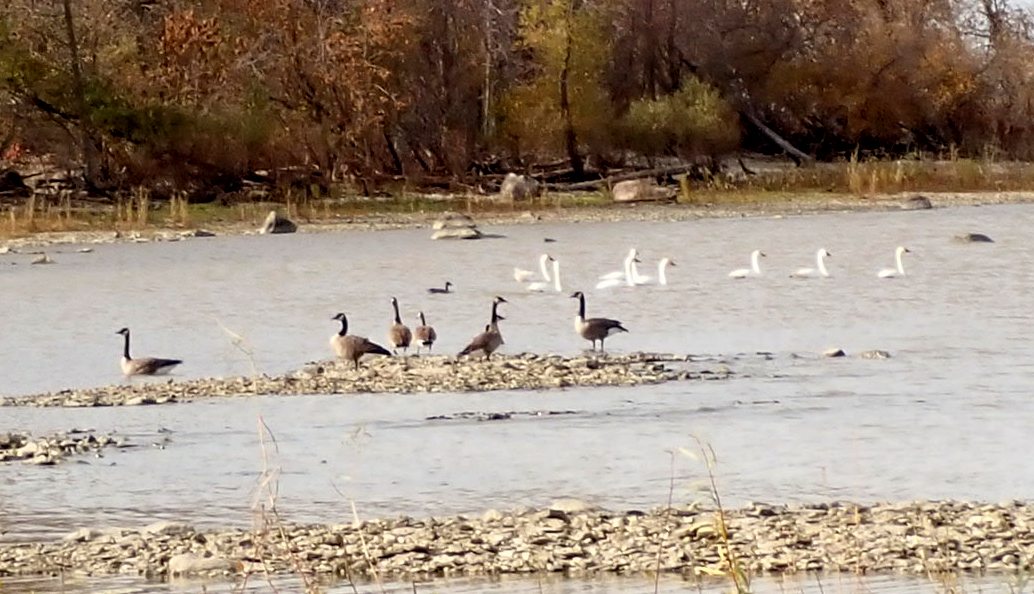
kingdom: Animalia
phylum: Chordata
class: Aves
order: Anseriformes
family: Anatidae
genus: Branta
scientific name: Branta canadensis
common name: Canada goose
